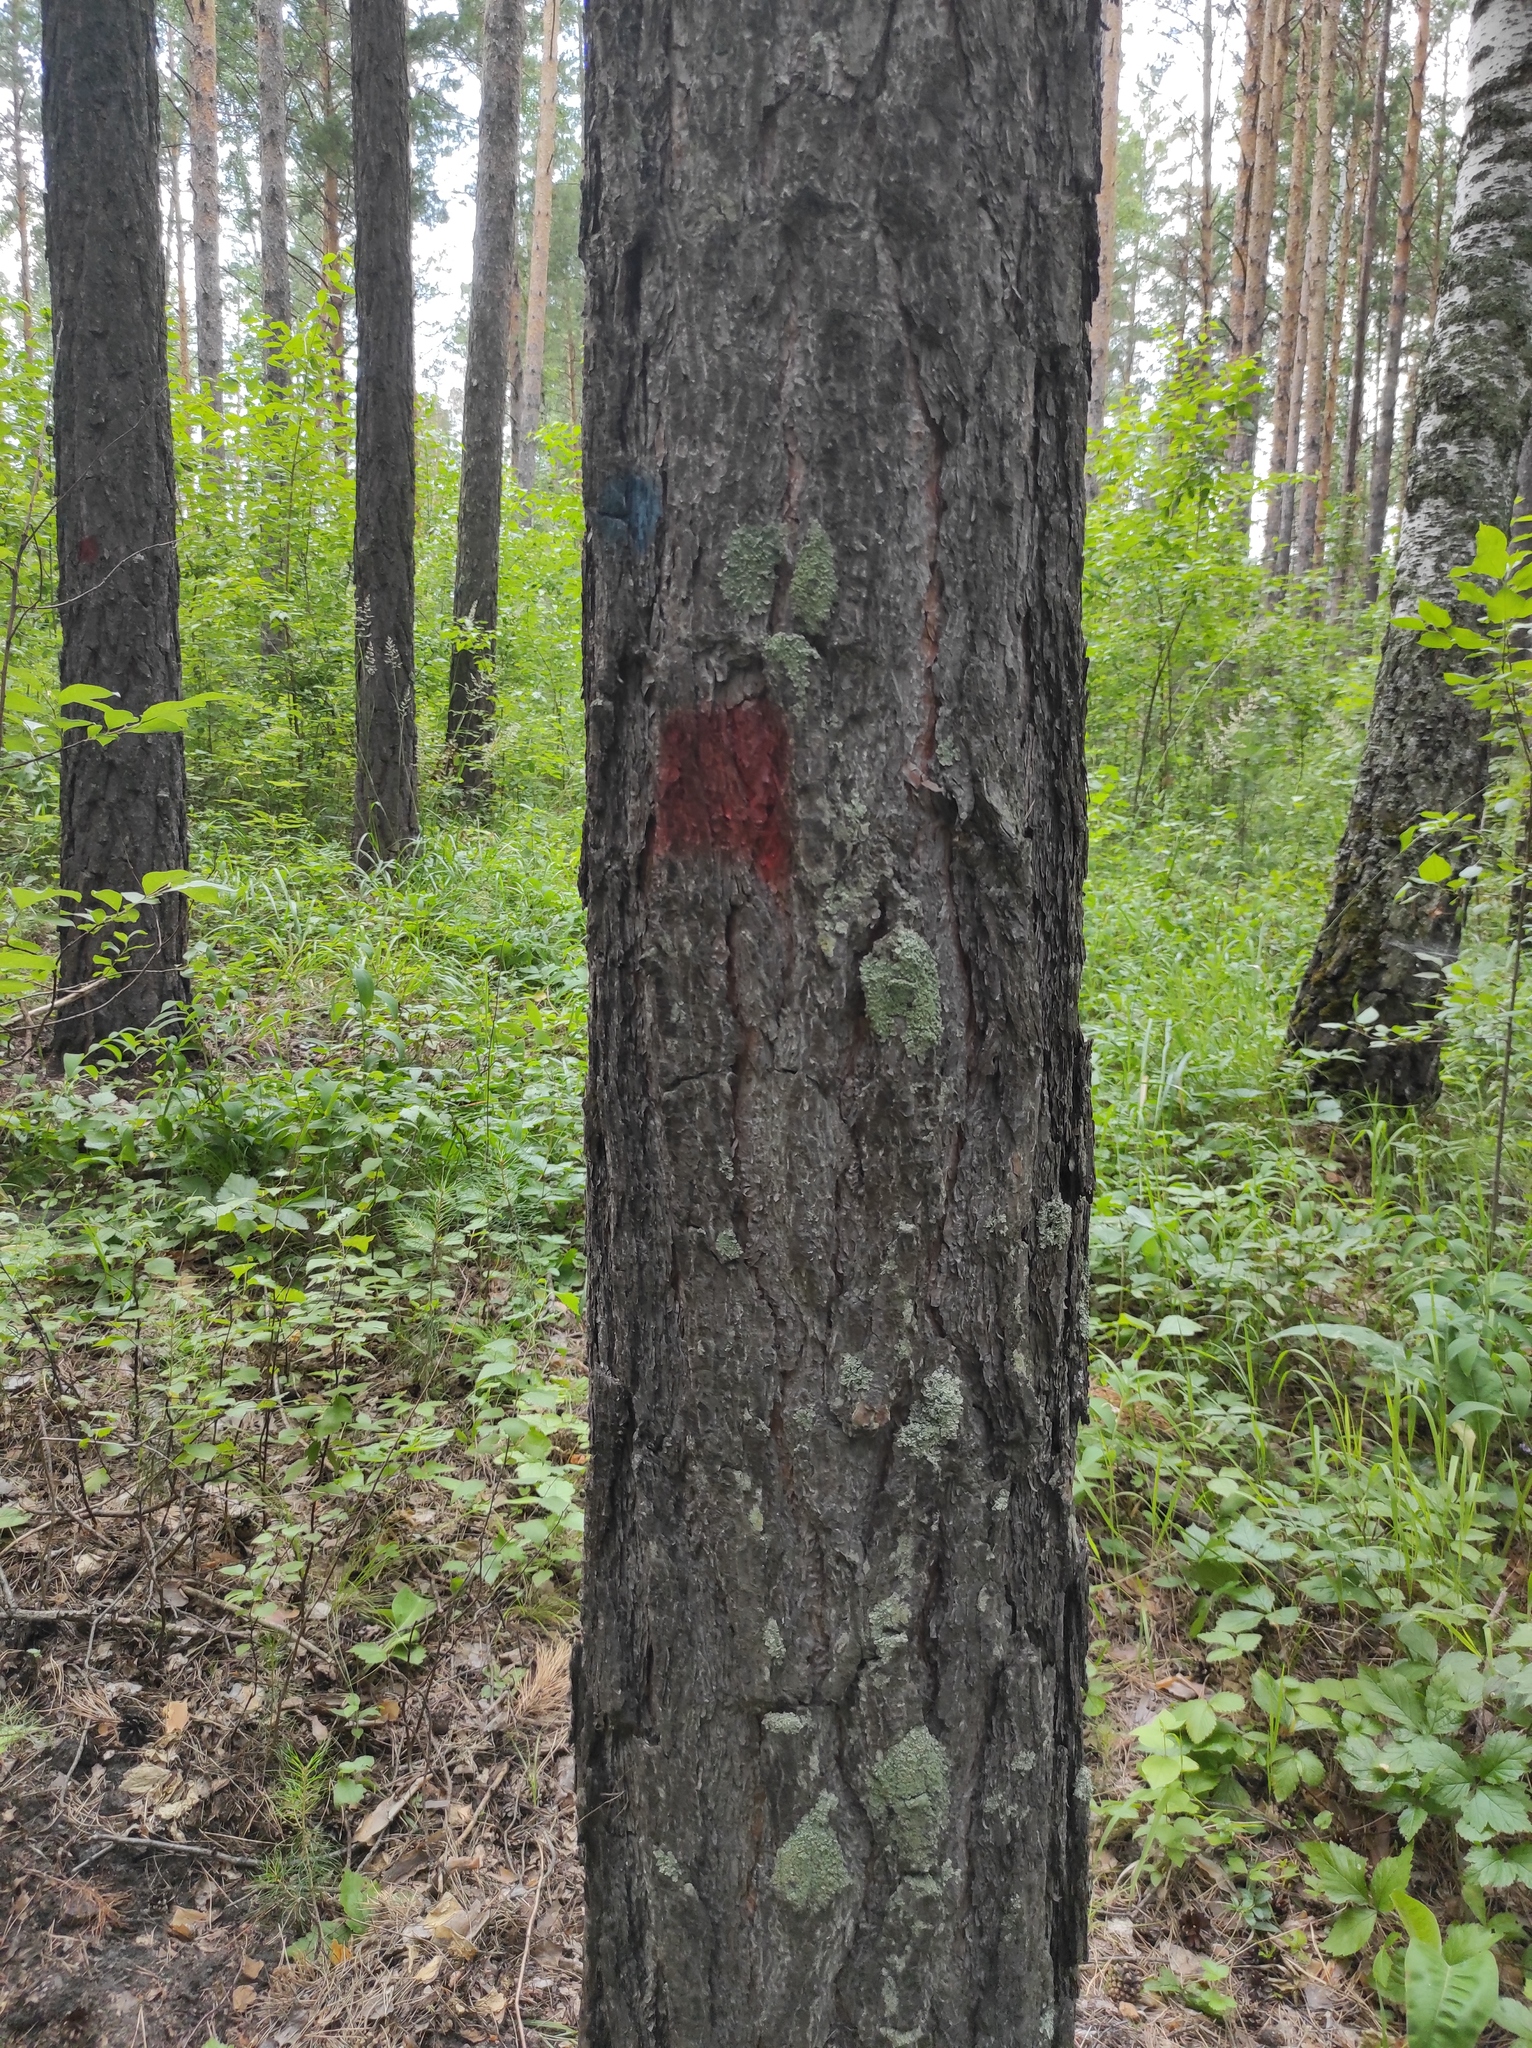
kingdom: Plantae
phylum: Tracheophyta
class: Pinopsida
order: Pinales
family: Pinaceae
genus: Pinus
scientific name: Pinus sylvestris
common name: Scots pine
